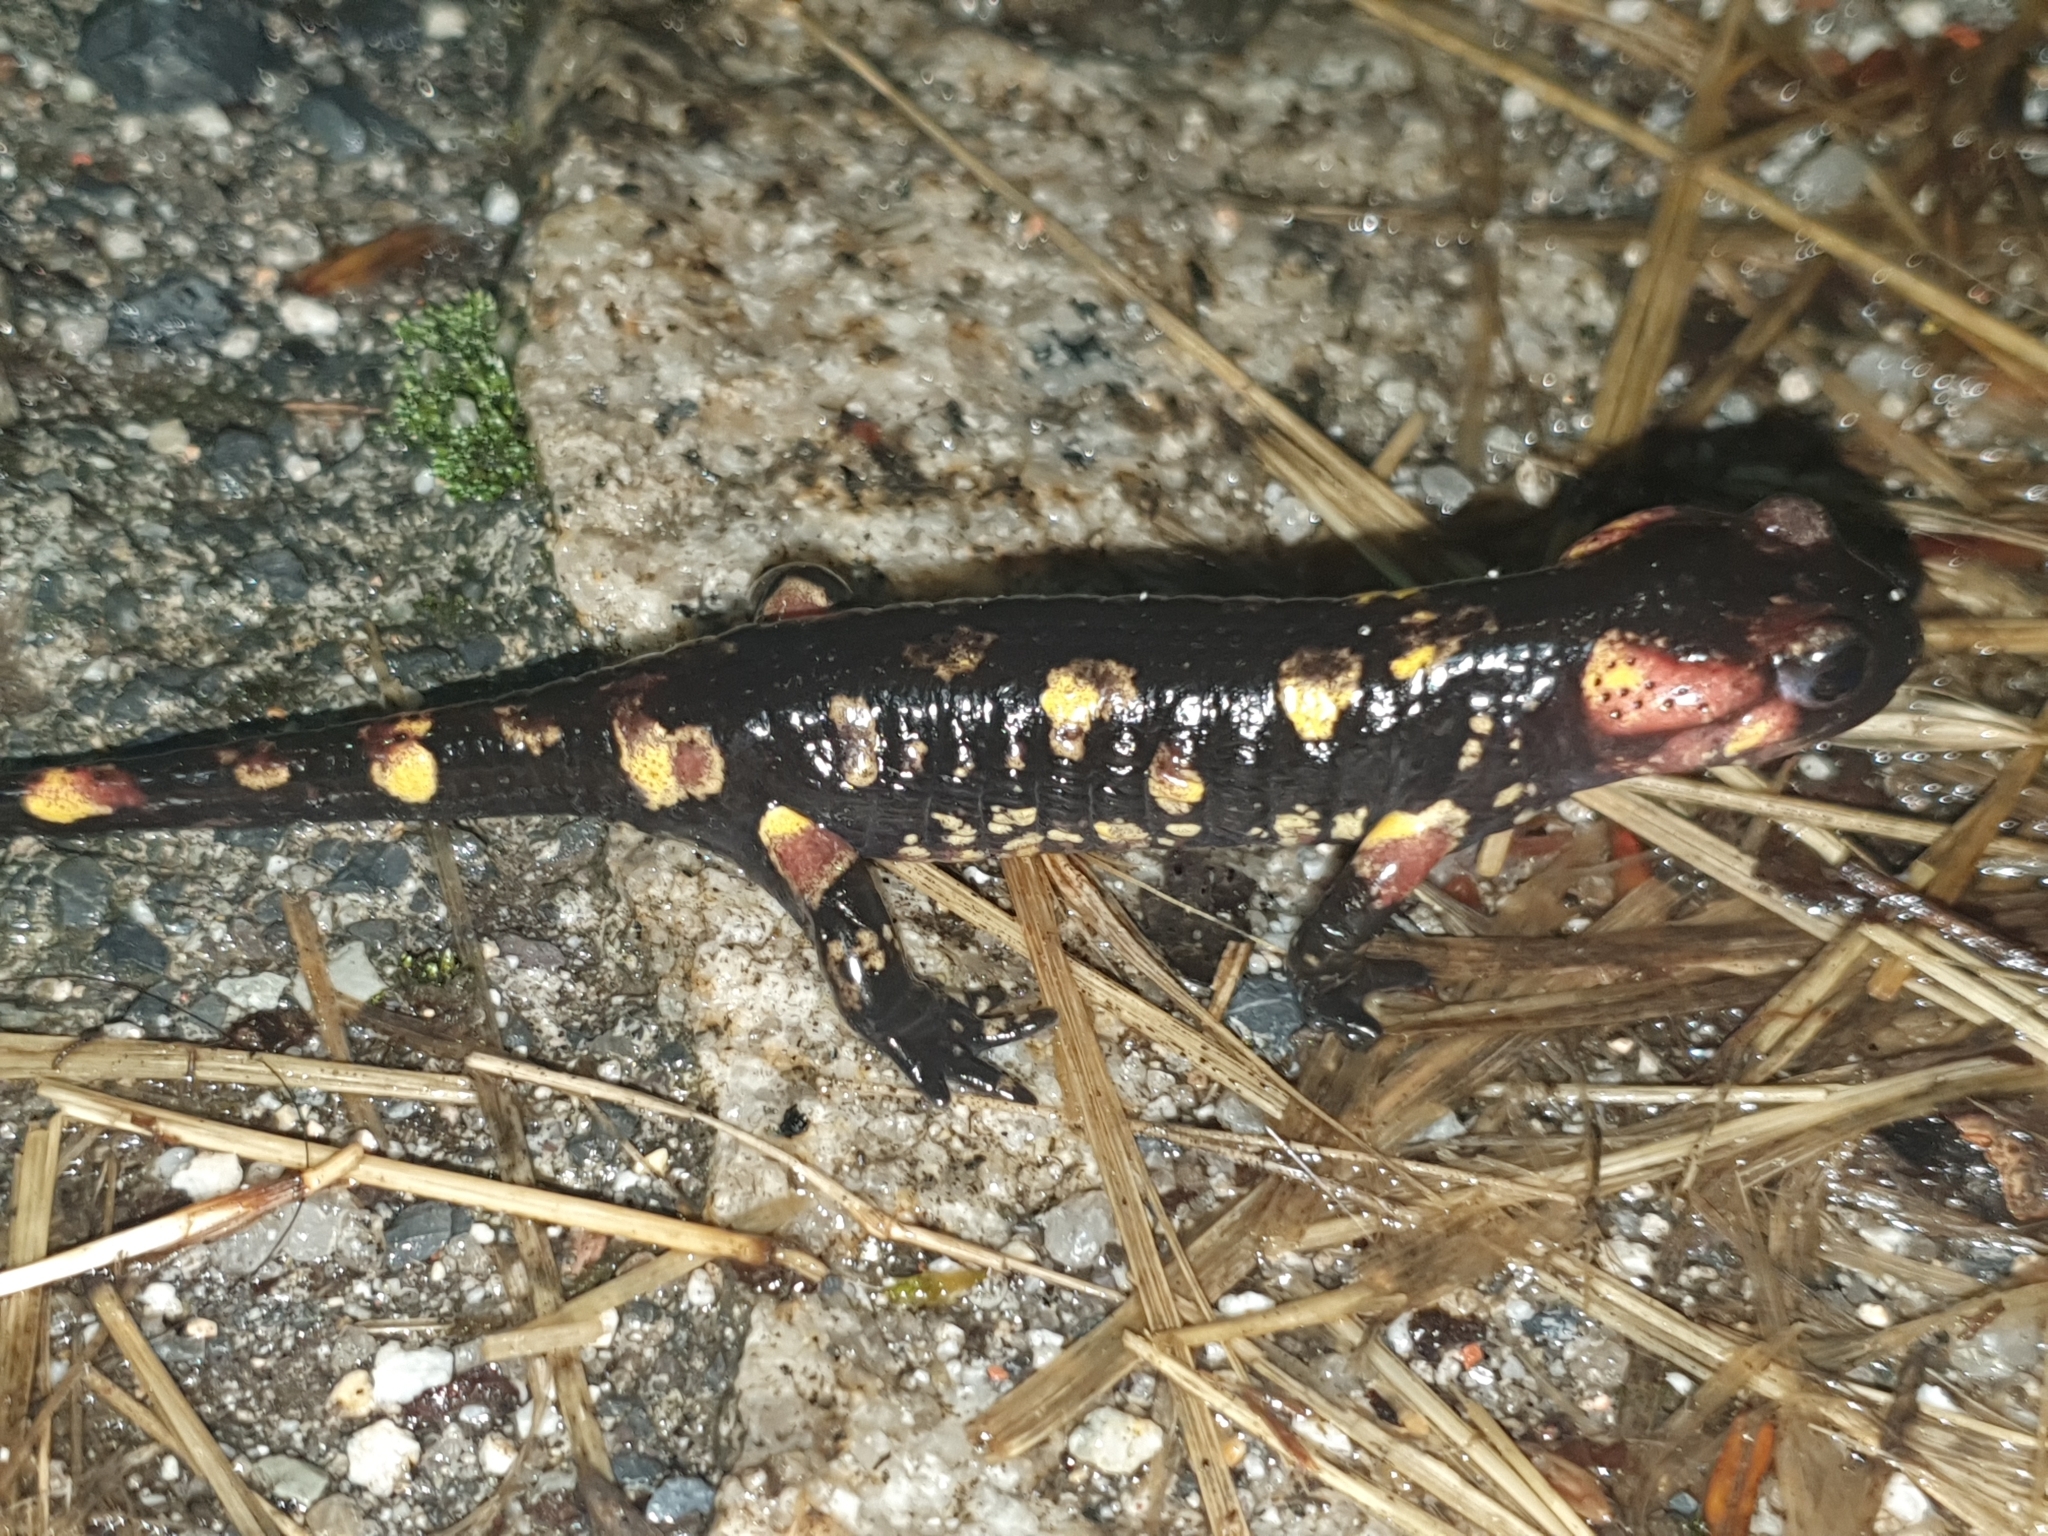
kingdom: Animalia
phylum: Chordata
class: Amphibia
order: Caudata
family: Salamandridae
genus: Salamandra
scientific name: Salamandra salamandra
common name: Fire salamander
